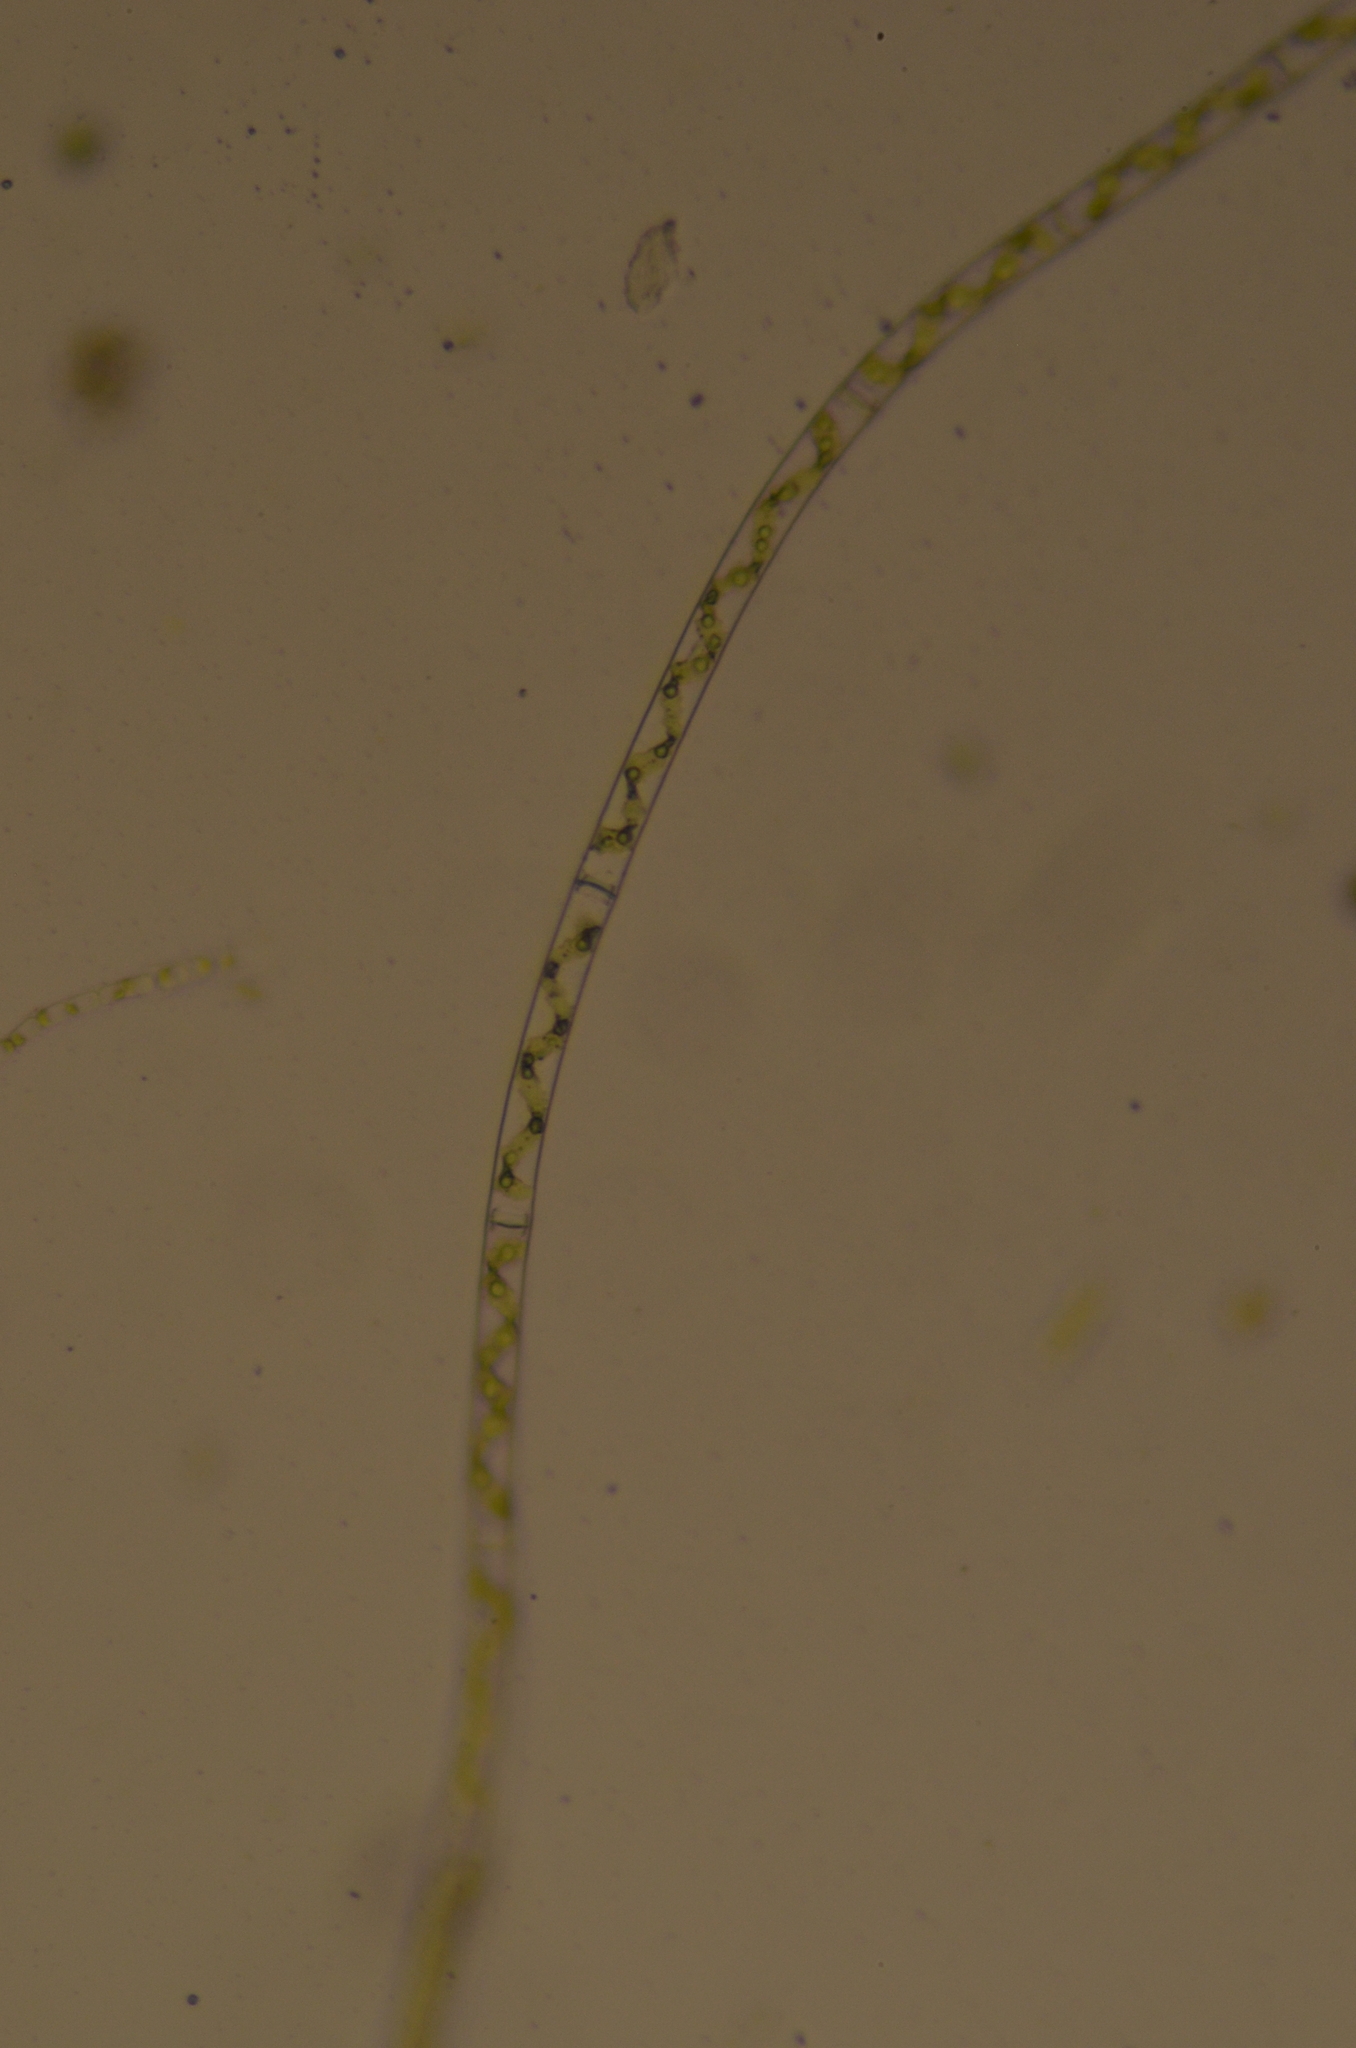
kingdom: Plantae
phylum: Charophyta
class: Zygnematophyceae
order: Zygnematales
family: Zygnemataceae
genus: Spirogyra
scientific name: Spirogyra
